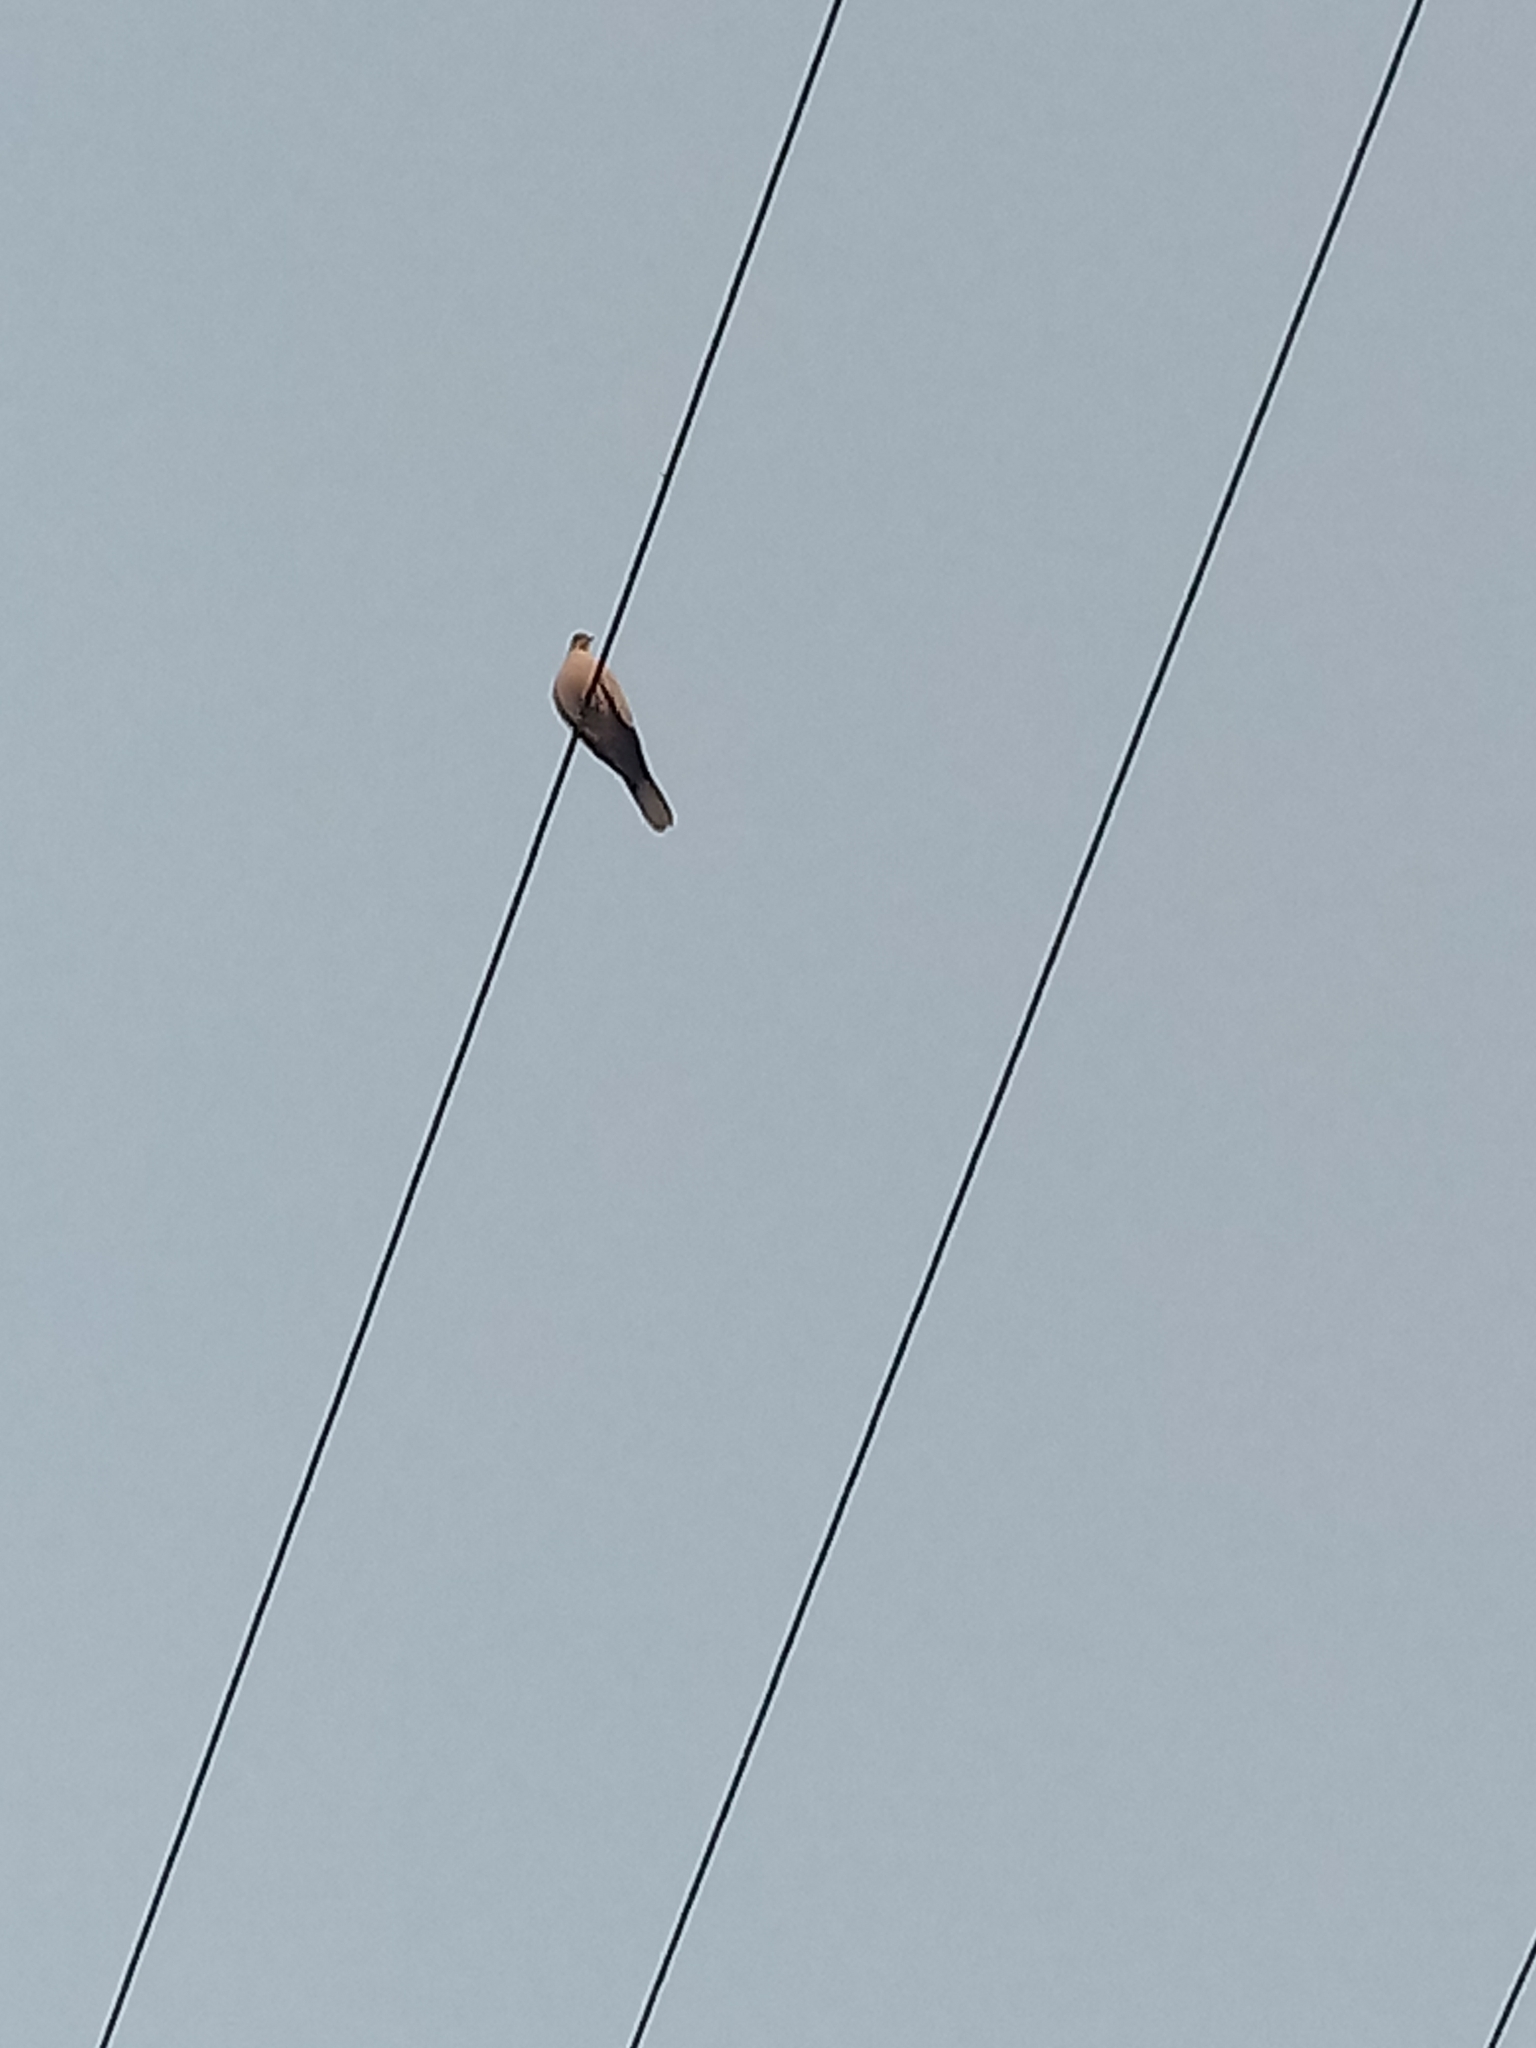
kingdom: Animalia
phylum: Chordata
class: Aves
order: Columbiformes
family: Columbidae
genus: Streptopelia
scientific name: Streptopelia decaocto
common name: Eurasian collared dove
